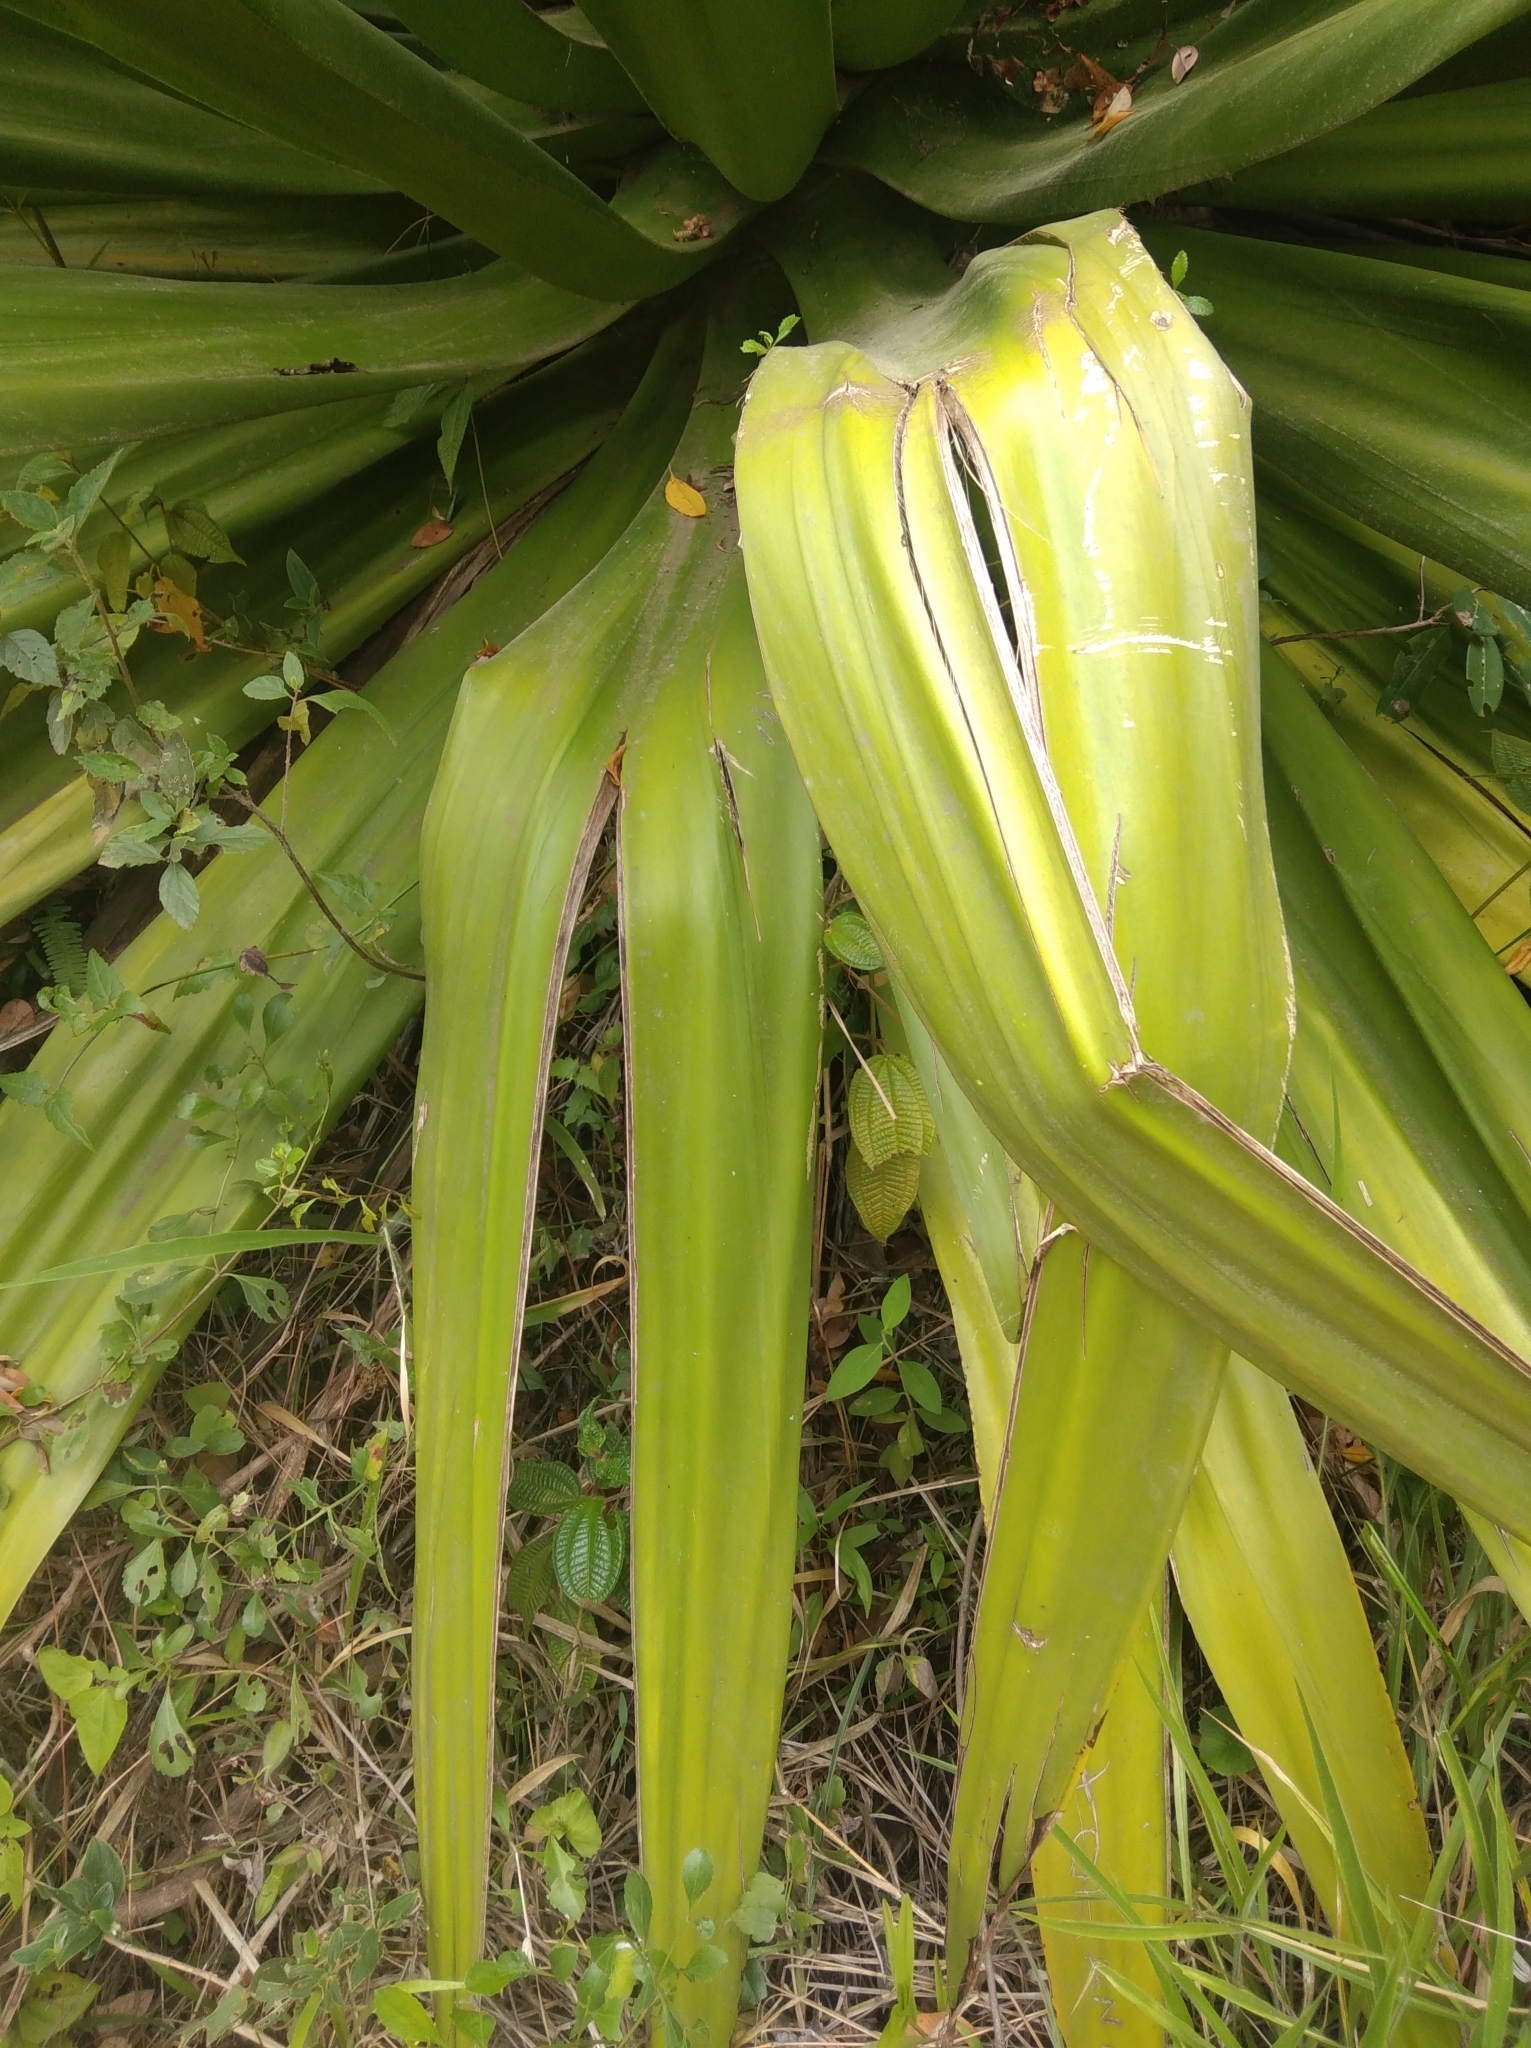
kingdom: Plantae
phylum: Tracheophyta
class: Liliopsida
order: Asparagales
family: Asparagaceae
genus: Furcraea
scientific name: Furcraea foetida
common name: Mauritius hemp
